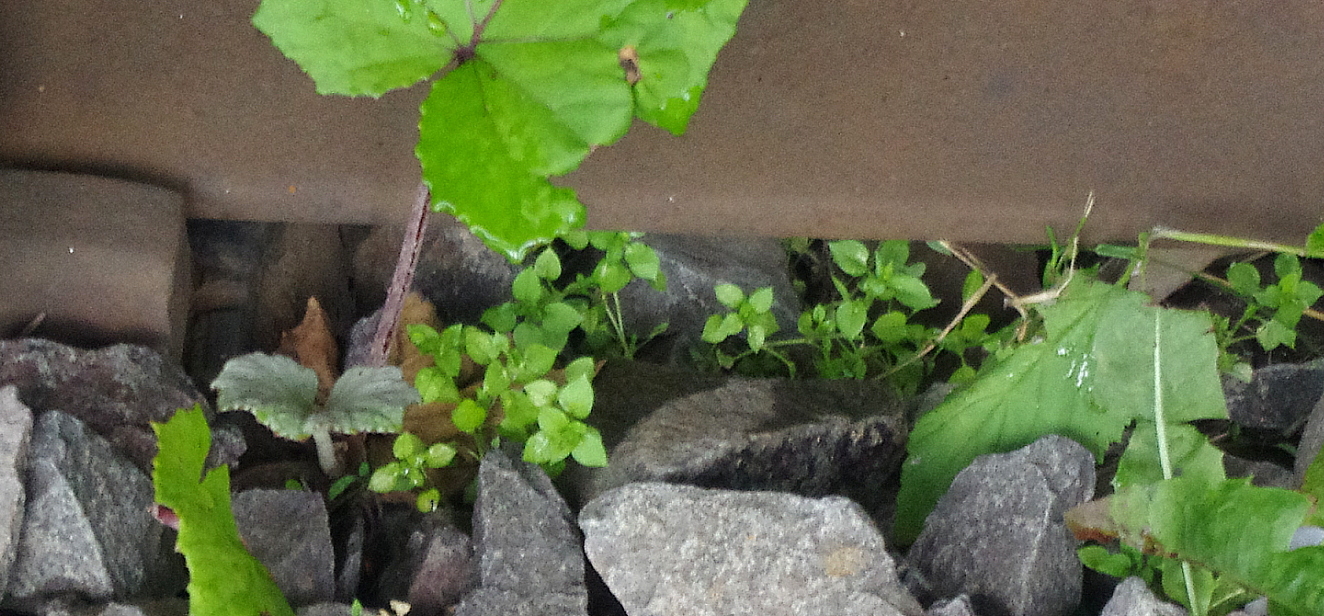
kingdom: Plantae
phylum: Tracheophyta
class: Magnoliopsida
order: Caryophyllales
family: Caryophyllaceae
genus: Stellaria
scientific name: Stellaria media
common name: Common chickweed
